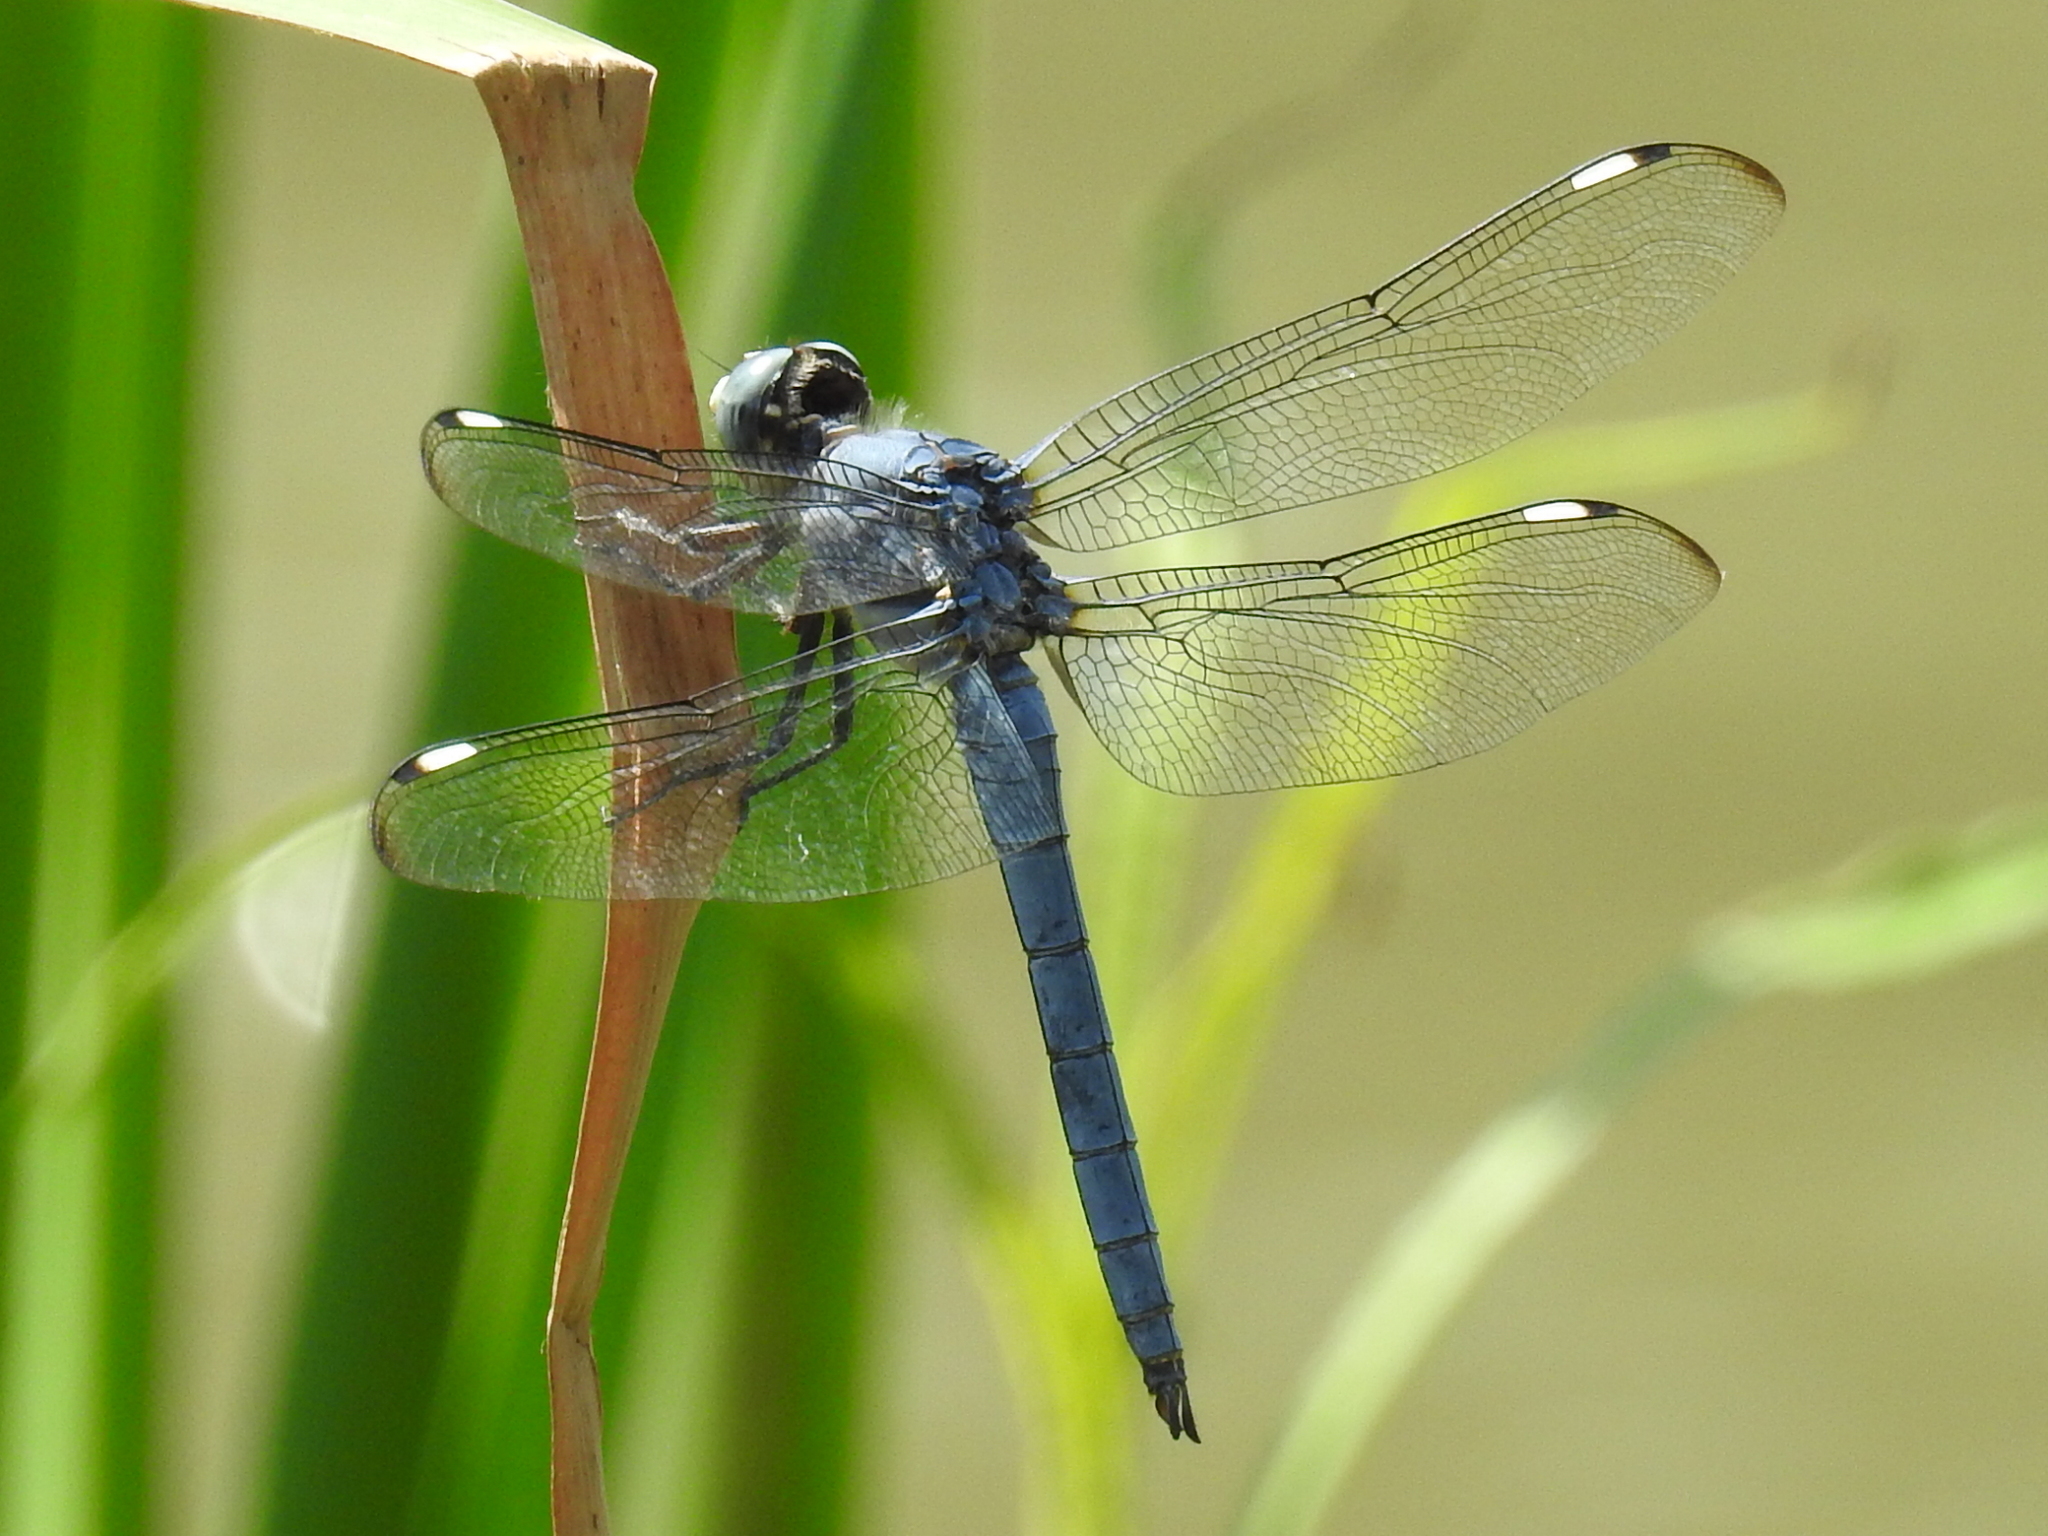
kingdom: Animalia
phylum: Arthropoda
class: Insecta
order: Odonata
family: Libellulidae
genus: Libellula
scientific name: Libellula comanche
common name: Comanche skimmer
